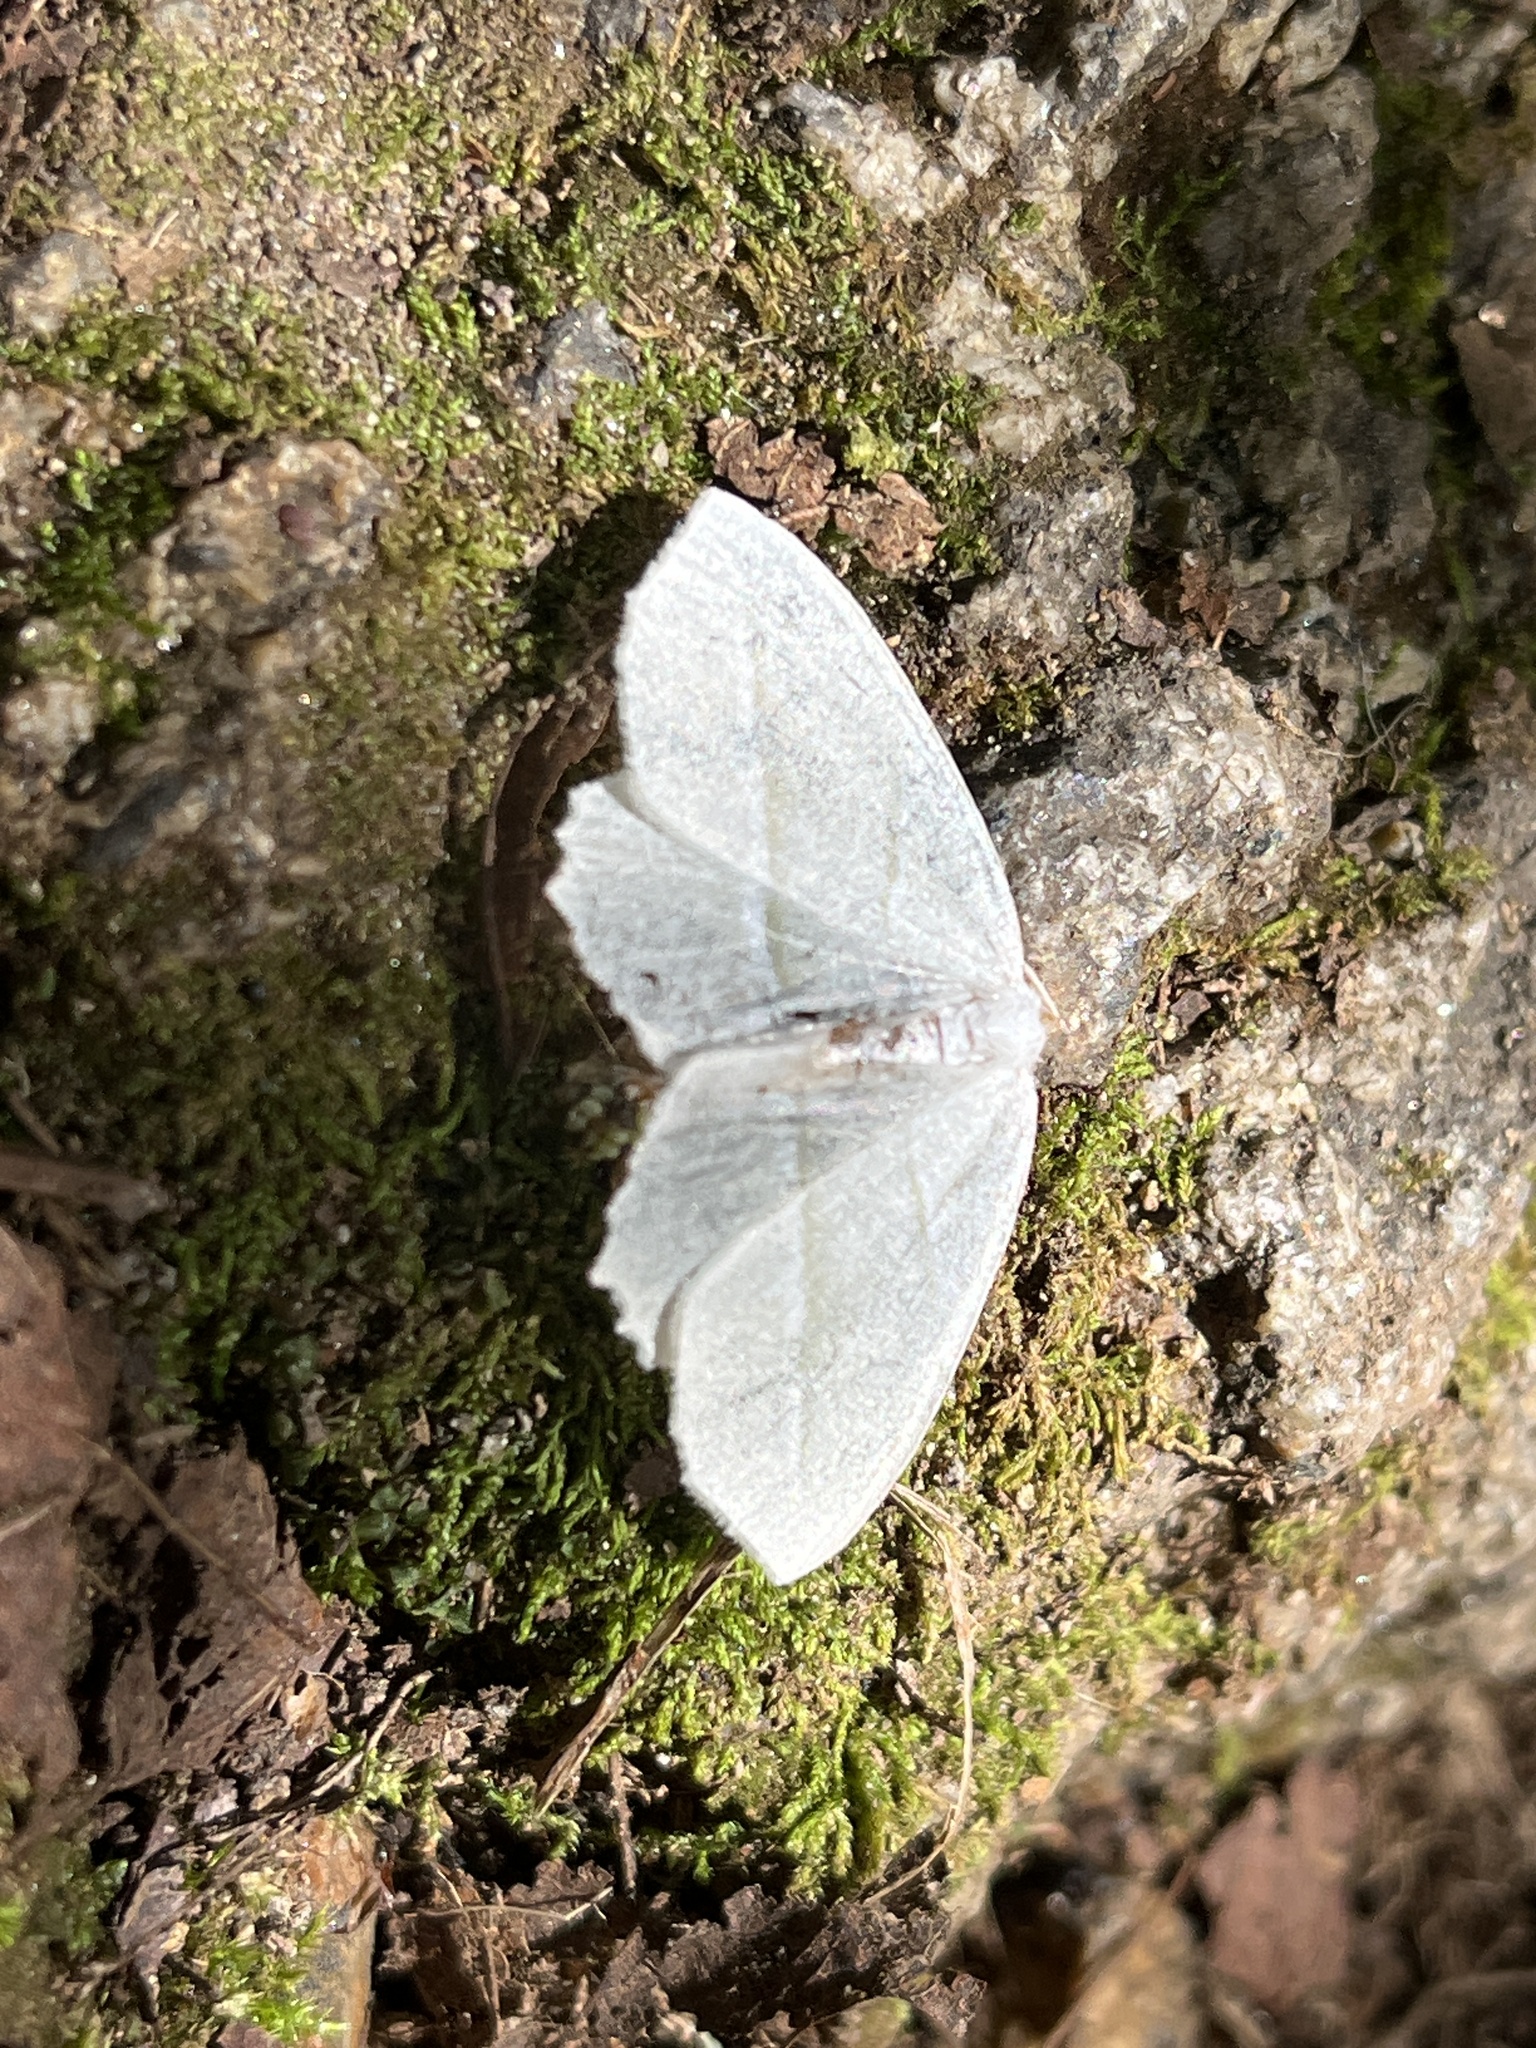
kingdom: Animalia
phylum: Arthropoda
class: Insecta
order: Lepidoptera
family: Geometridae
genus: Campaea
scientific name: Campaea perlata
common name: Fringed looper
